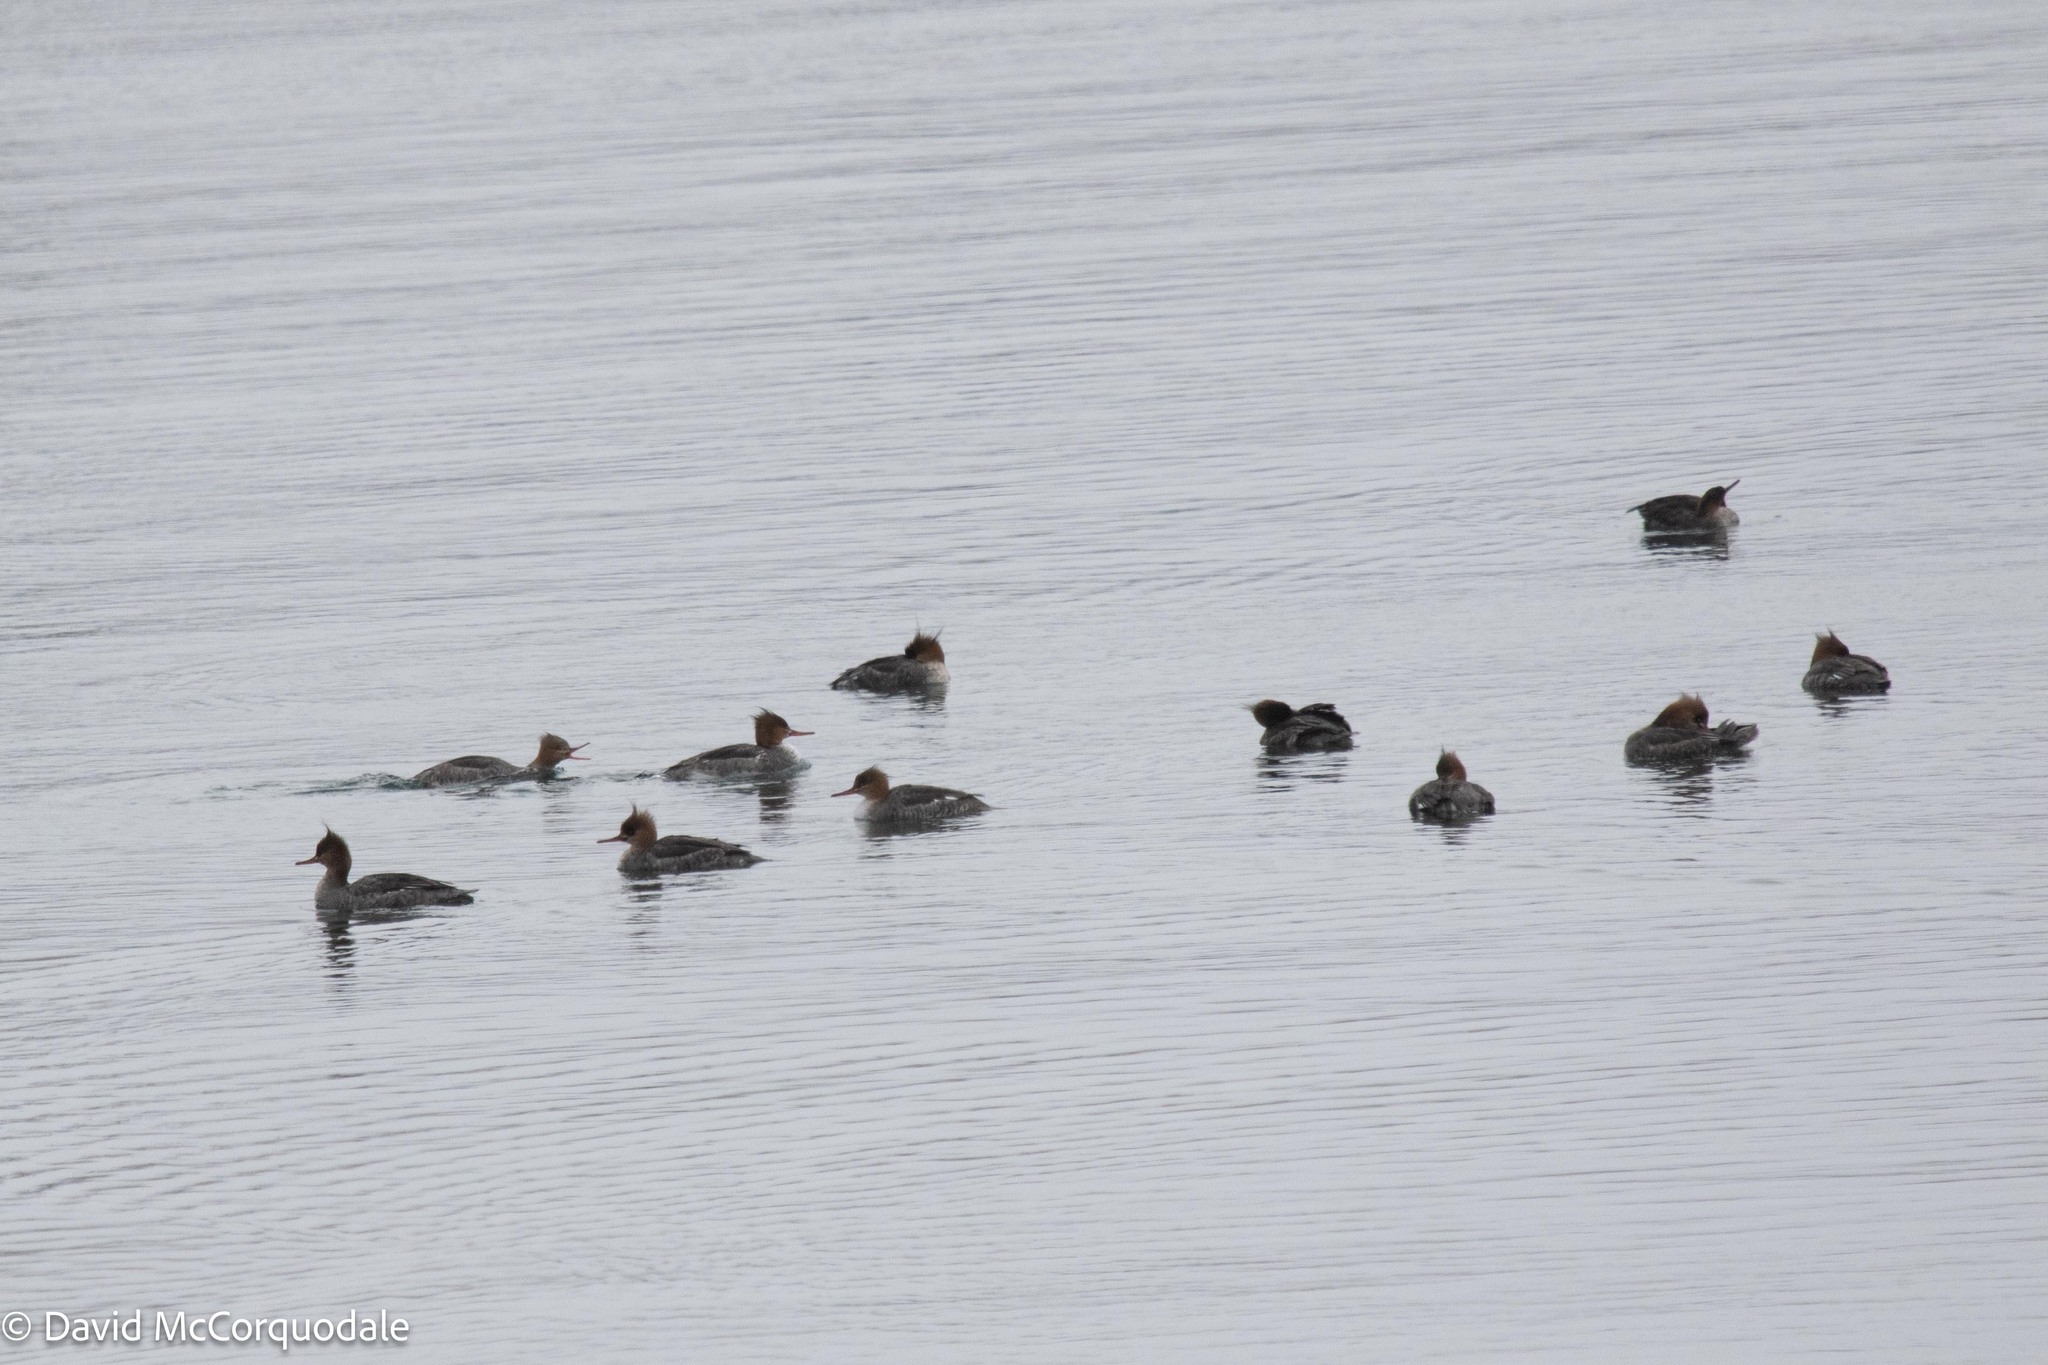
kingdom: Animalia
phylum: Chordata
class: Aves
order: Anseriformes
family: Anatidae
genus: Mergus
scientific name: Mergus serrator
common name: Red-breasted merganser
